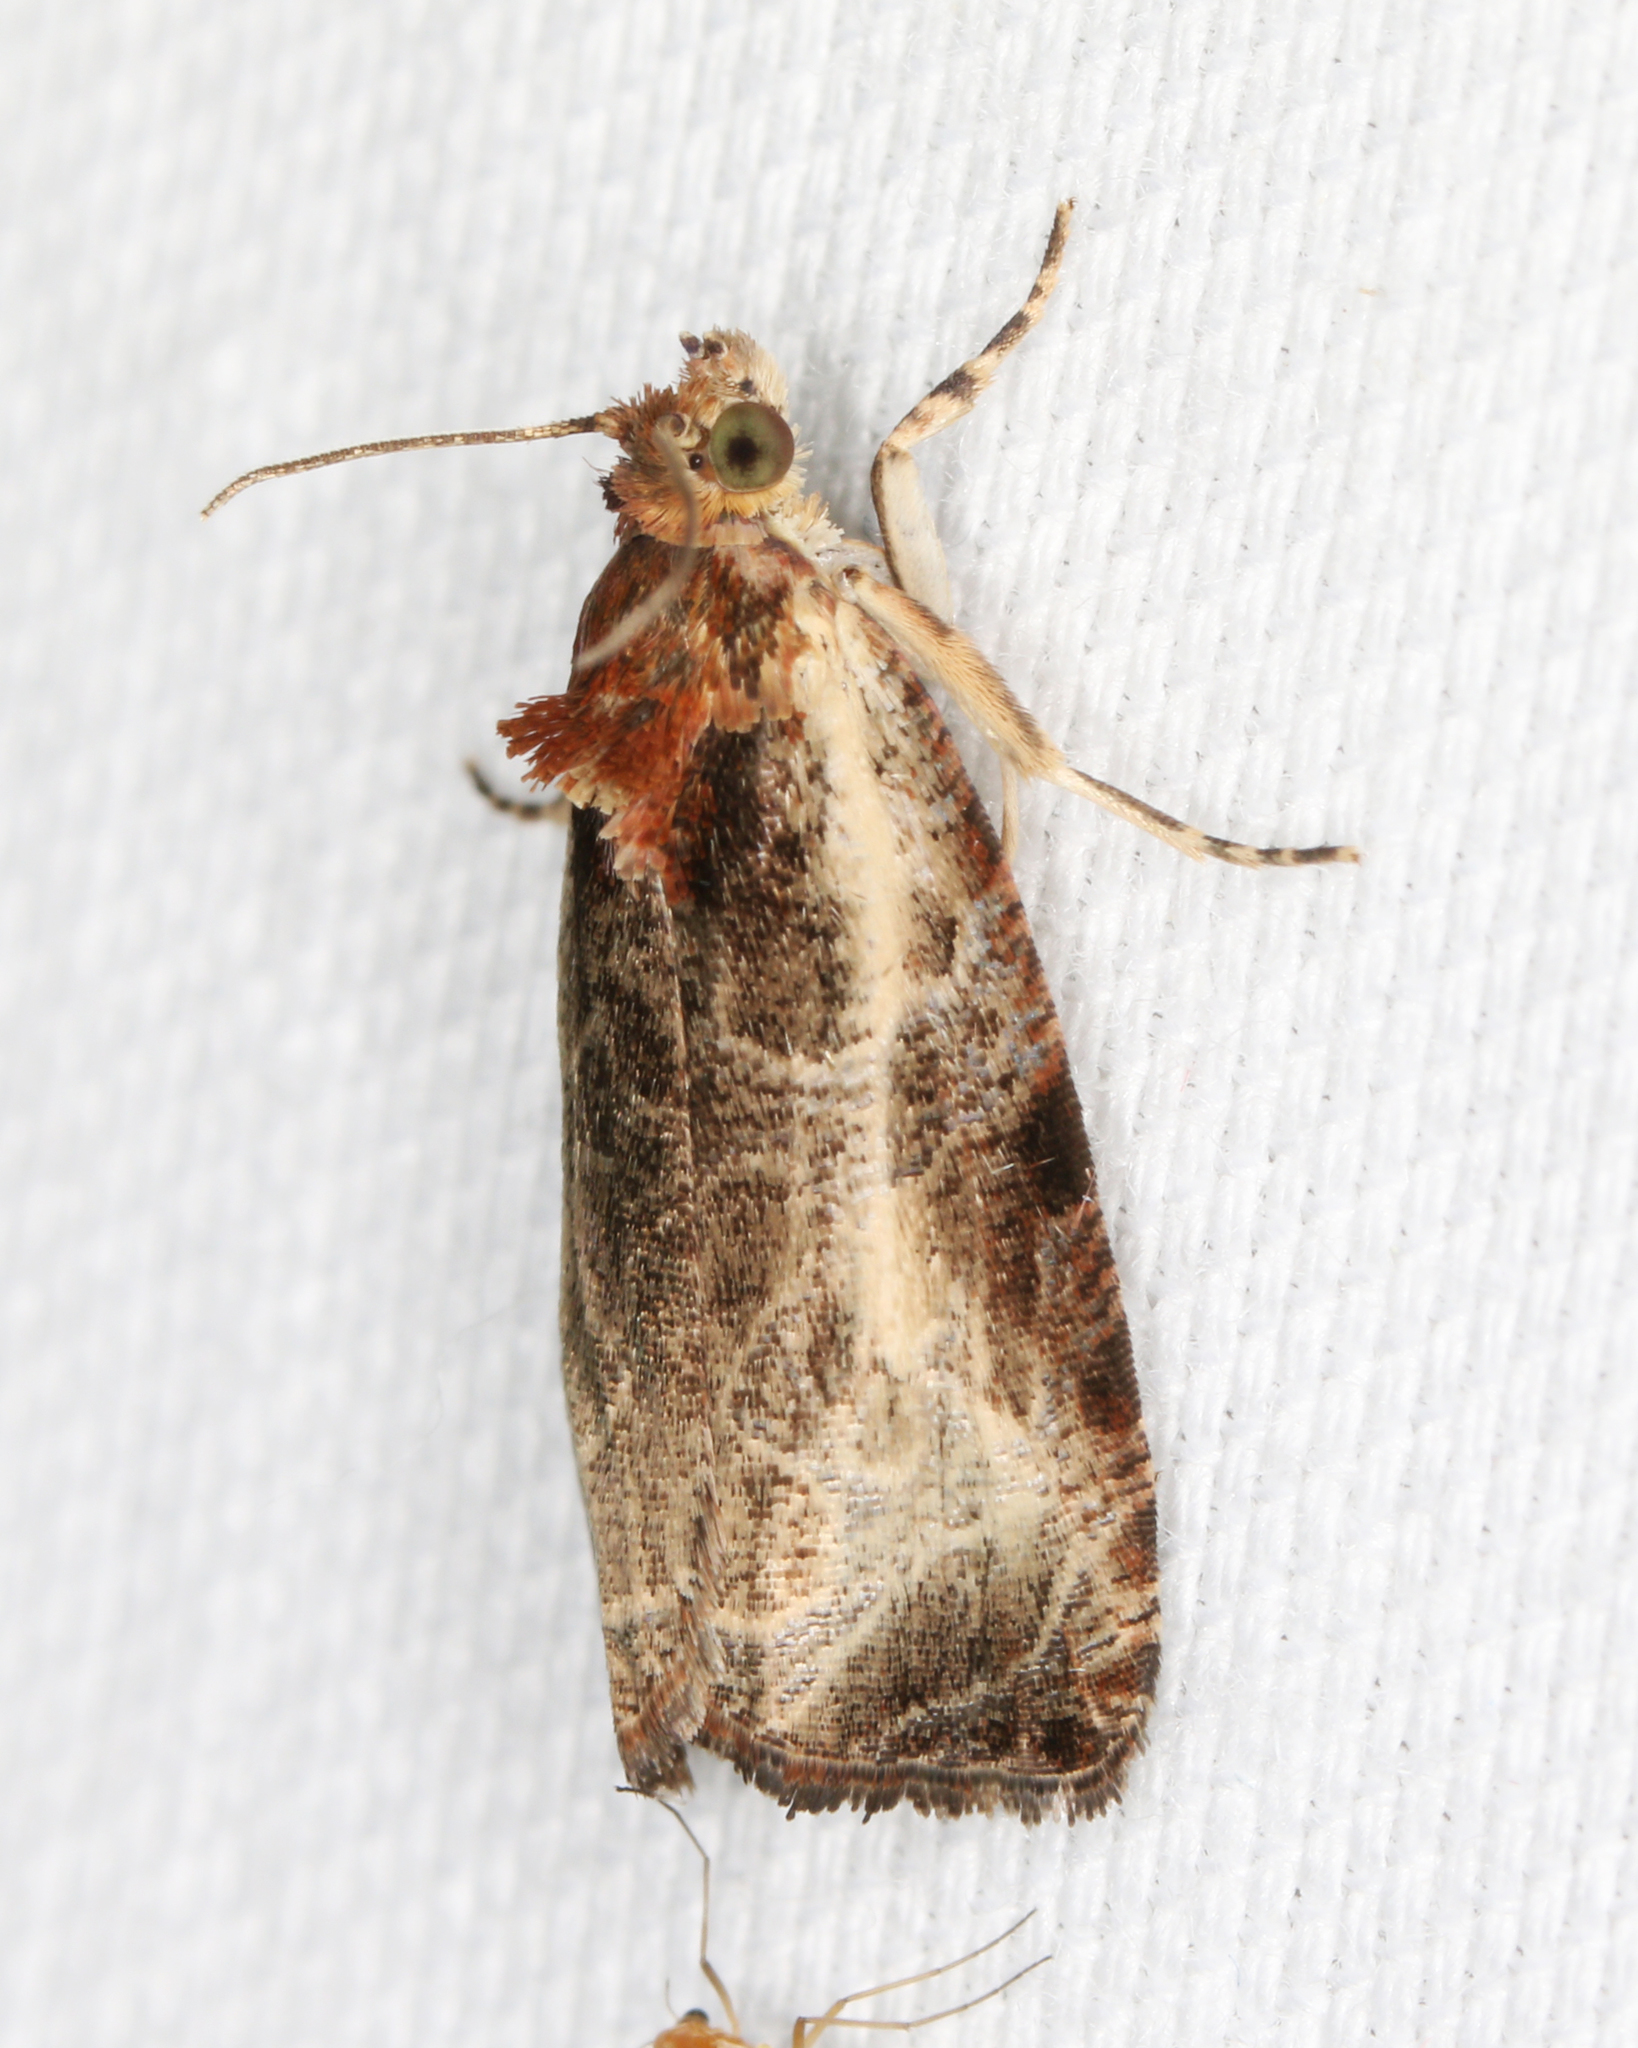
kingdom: Animalia
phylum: Arthropoda
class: Insecta
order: Lepidoptera
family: Tortricidae
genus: Olethreutes
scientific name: Olethreutes inornatana
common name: Inornate olethreutes moth
